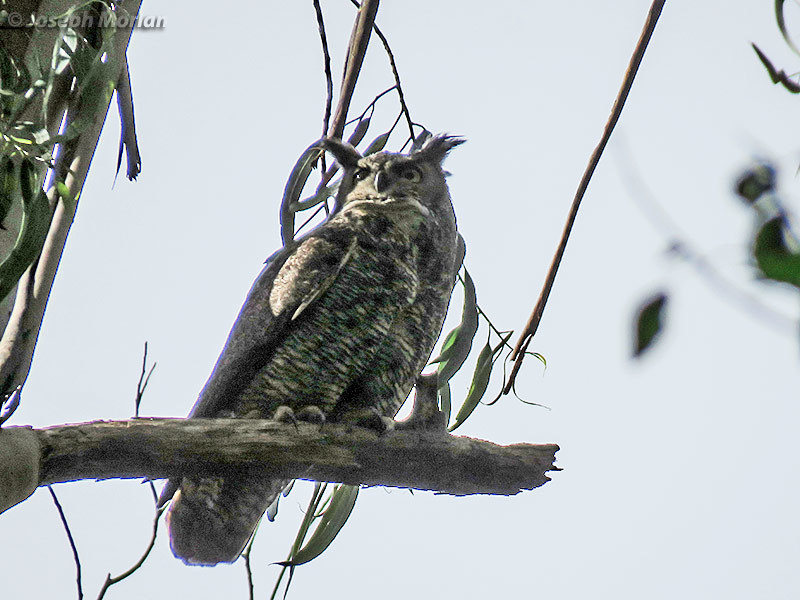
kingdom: Animalia
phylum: Chordata
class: Aves
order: Strigiformes
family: Strigidae
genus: Bubo
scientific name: Bubo virginianus
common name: Great horned owl
